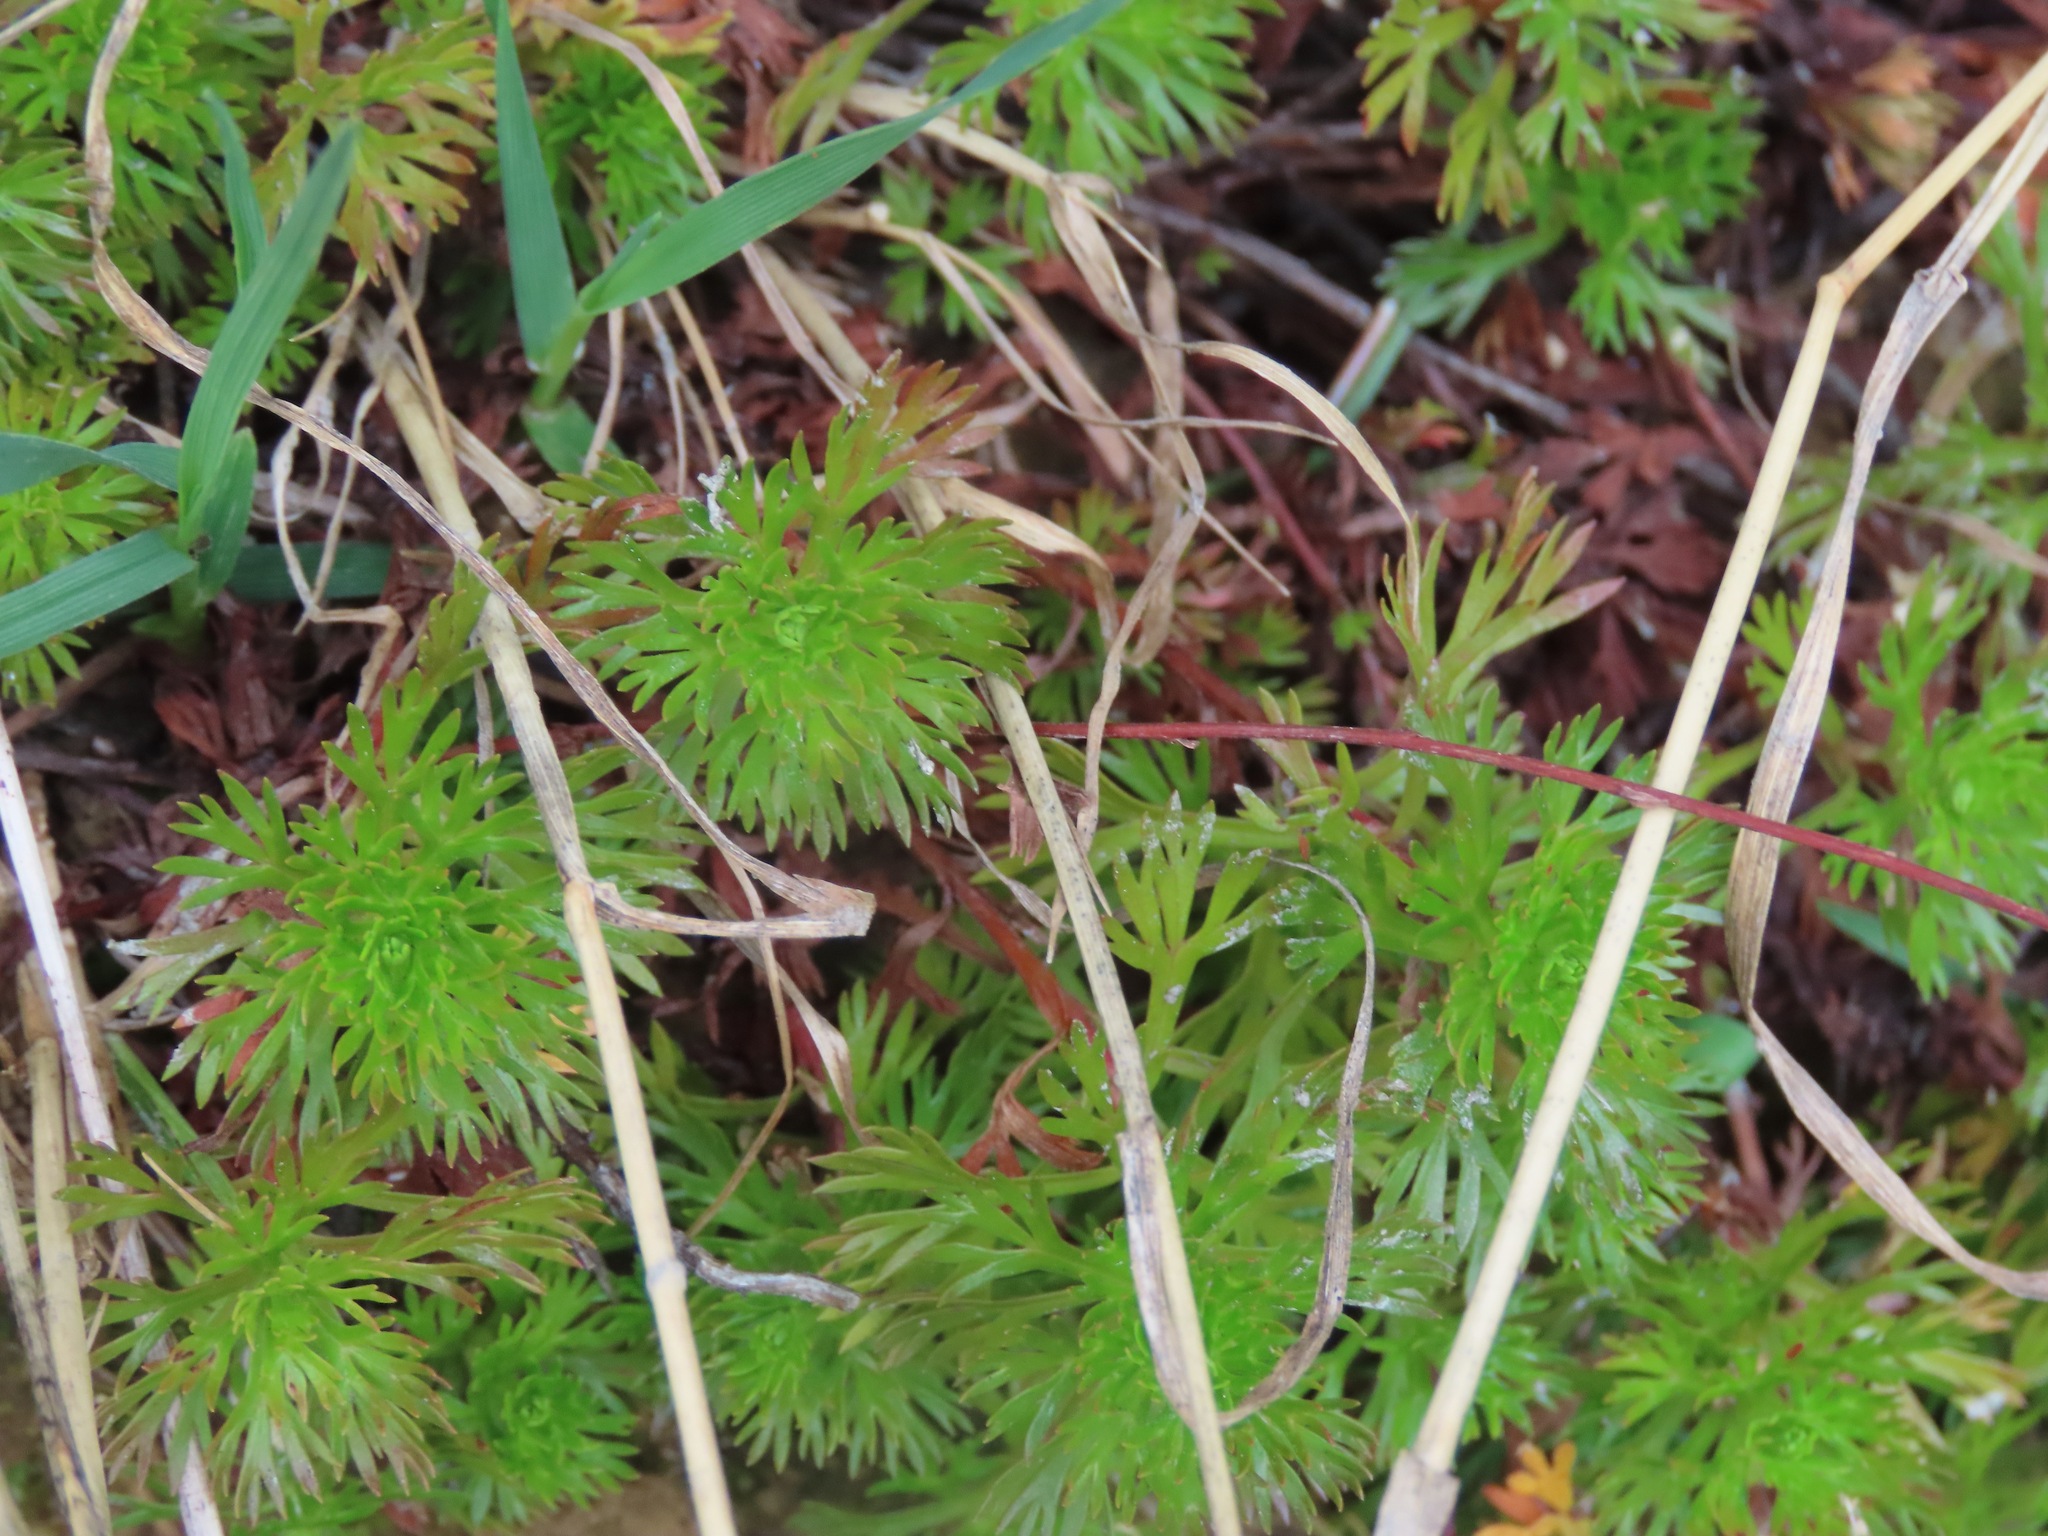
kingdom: Plantae
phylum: Tracheophyta
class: Magnoliopsida
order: Rosales
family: Rosaceae
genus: Luetkea
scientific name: Luetkea pectinata
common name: Partridgefoot
